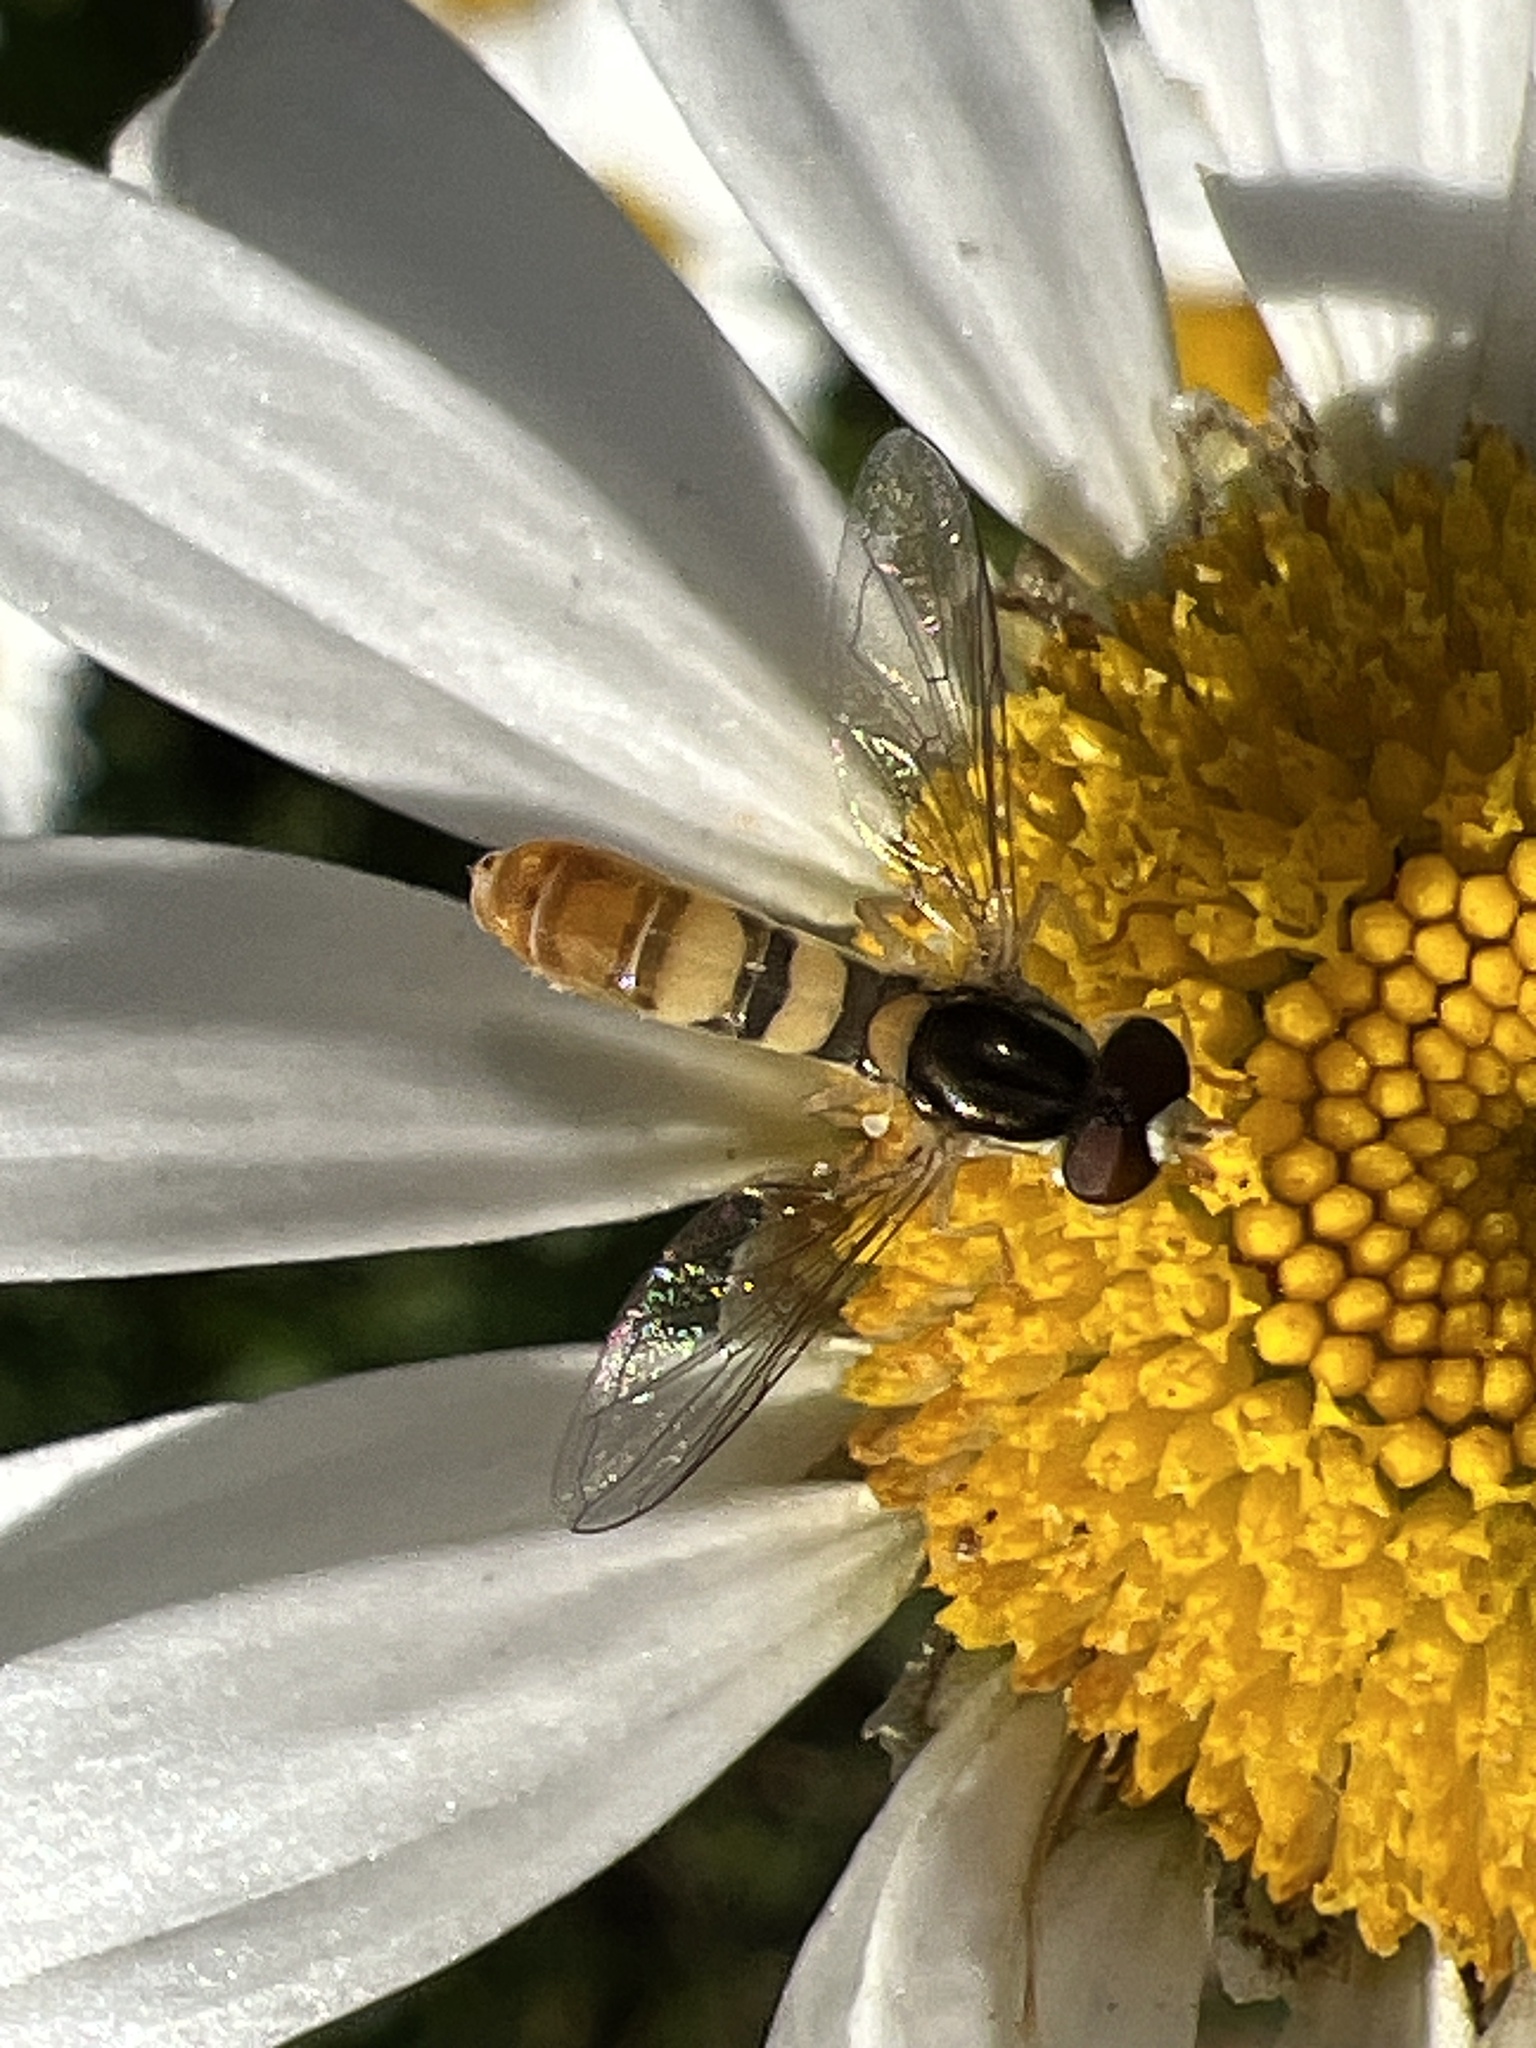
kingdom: Animalia
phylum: Arthropoda
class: Insecta
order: Diptera
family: Syrphidae
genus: Sphaerophoria
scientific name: Sphaerophoria contigua
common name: Tufted globetail
